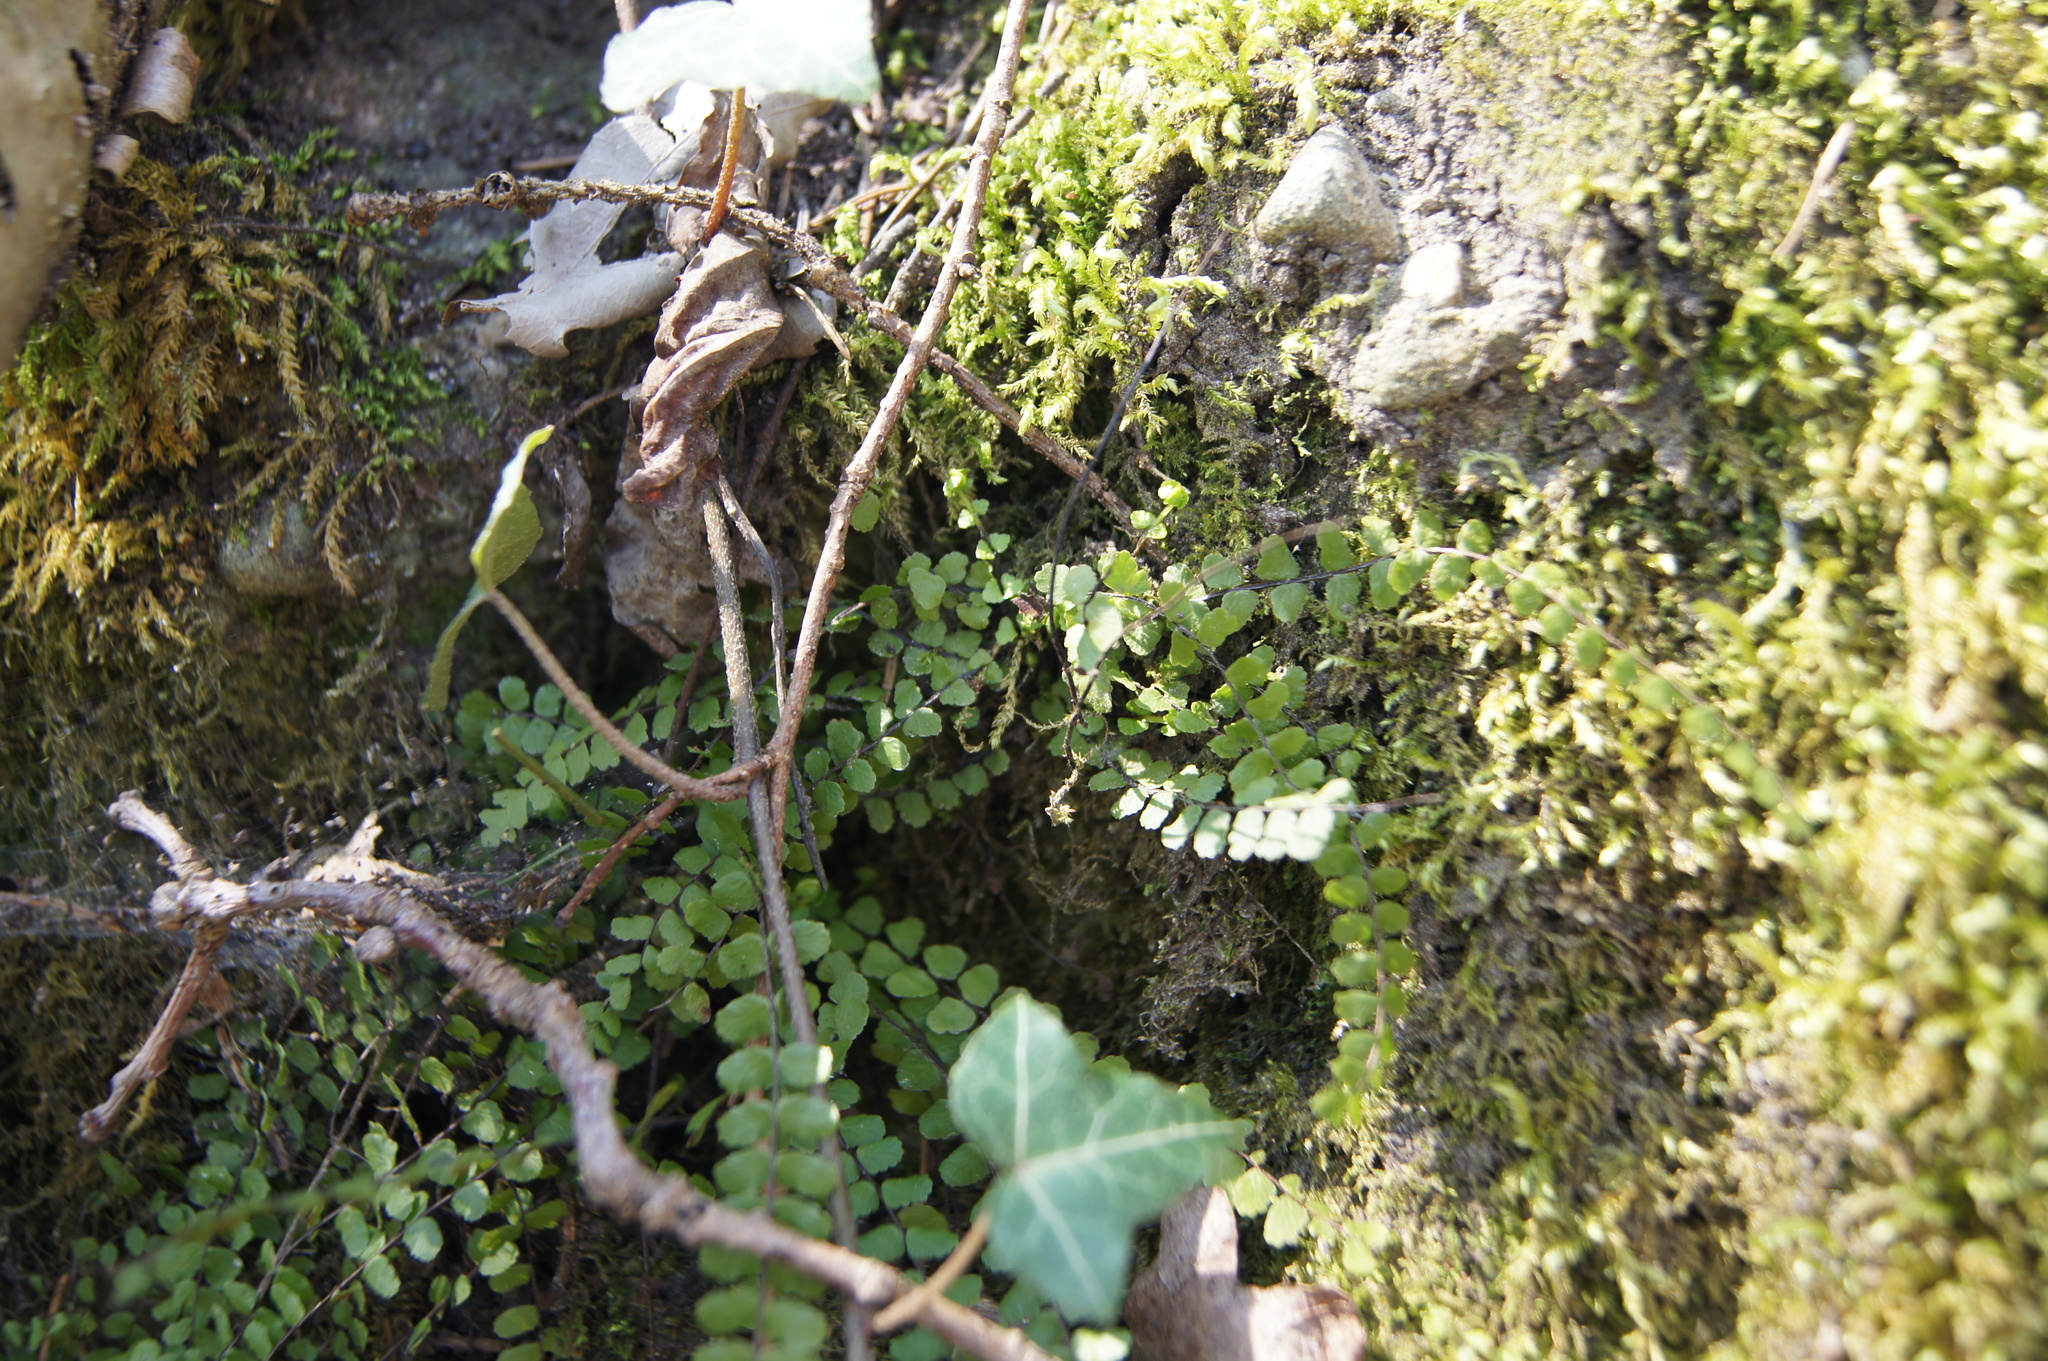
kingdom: Plantae
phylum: Tracheophyta
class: Polypodiopsida
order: Polypodiales
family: Aspleniaceae
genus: Asplenium
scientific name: Asplenium trichomanes
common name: Maidenhair spleenwort
